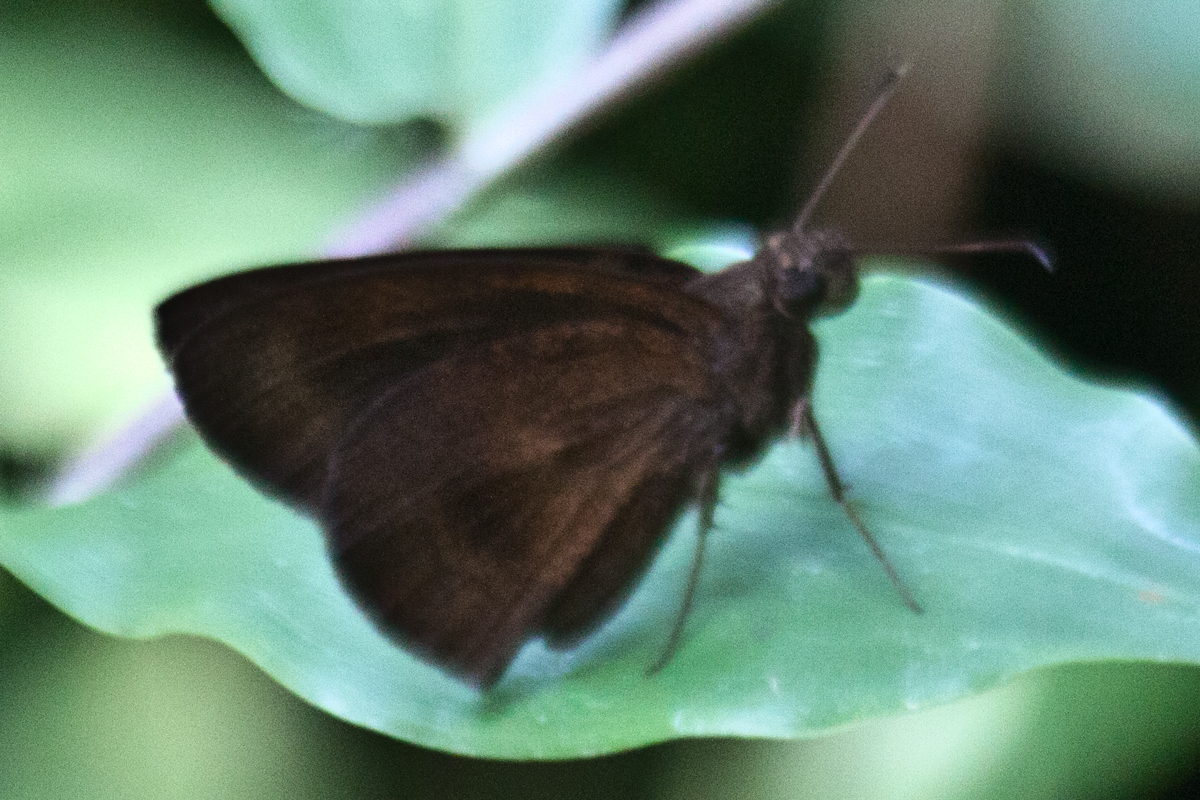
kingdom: Animalia
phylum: Arthropoda
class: Insecta
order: Lepidoptera
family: Hesperiidae
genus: Ancistroides
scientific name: Ancistroides nigrita
